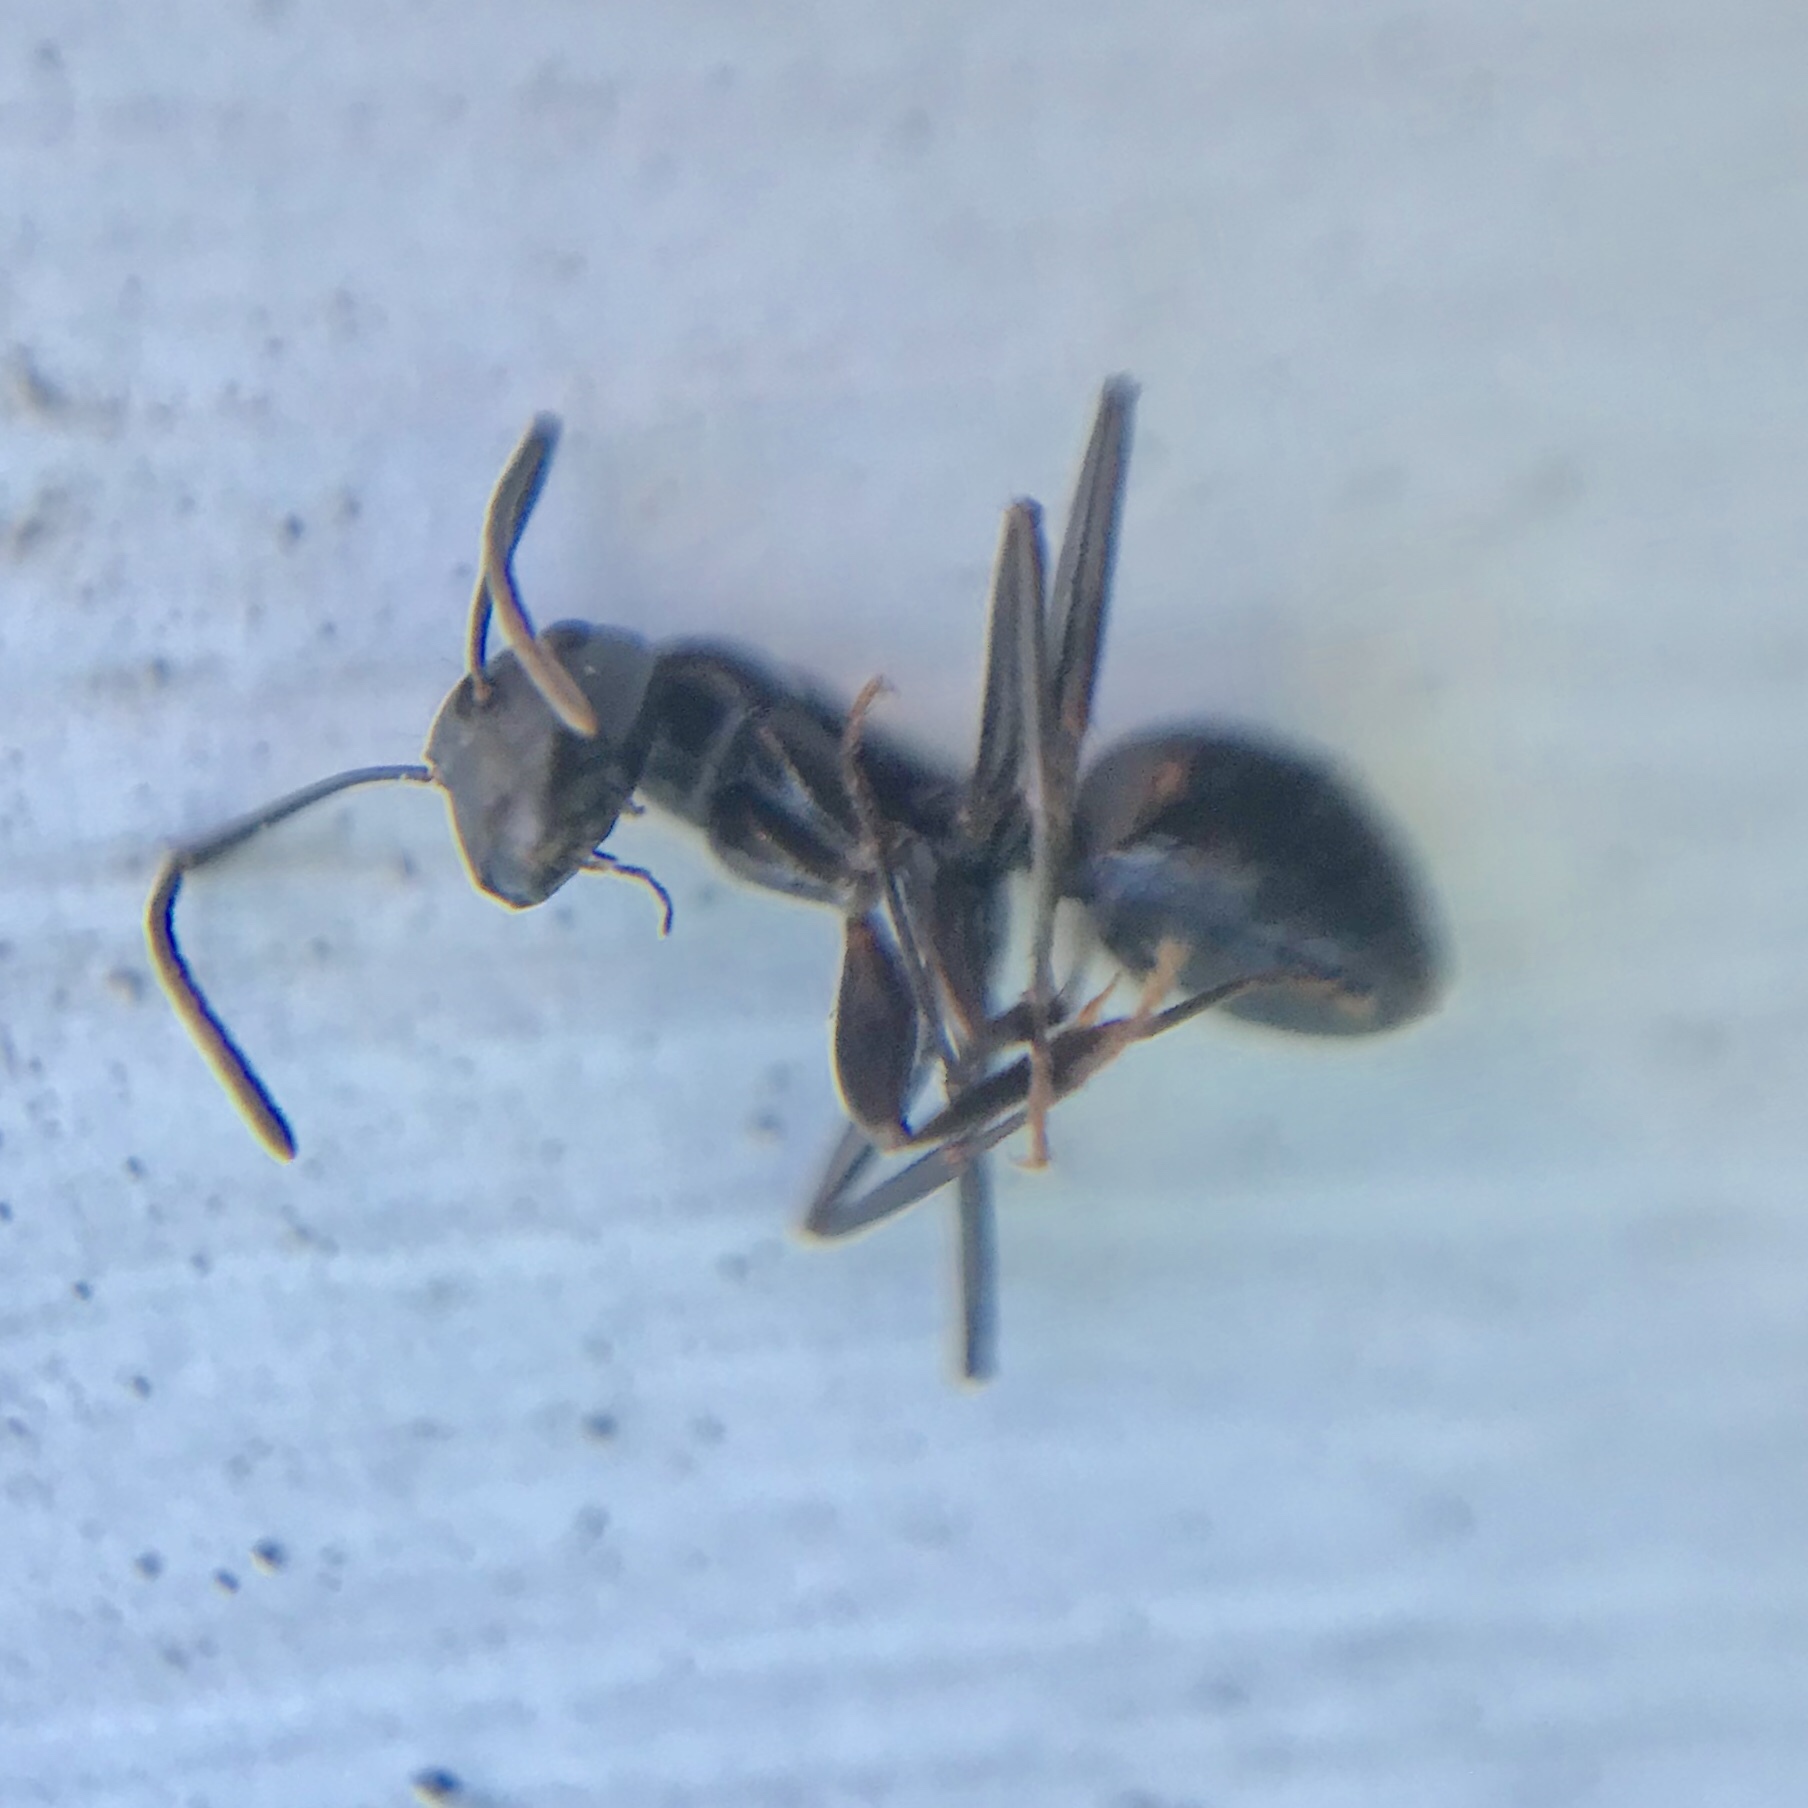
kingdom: Animalia
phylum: Arthropoda
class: Insecta
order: Hymenoptera
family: Formicidae
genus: Camponotus
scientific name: Camponotus pennsylvanicus
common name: Black carpenter ant
